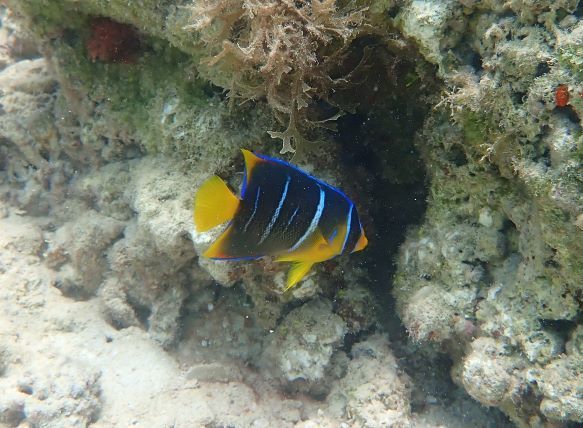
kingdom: Animalia
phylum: Chordata
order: Perciformes
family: Pomacanthidae
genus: Holacanthus
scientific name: Holacanthus bermudensis
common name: Blue angelfish
